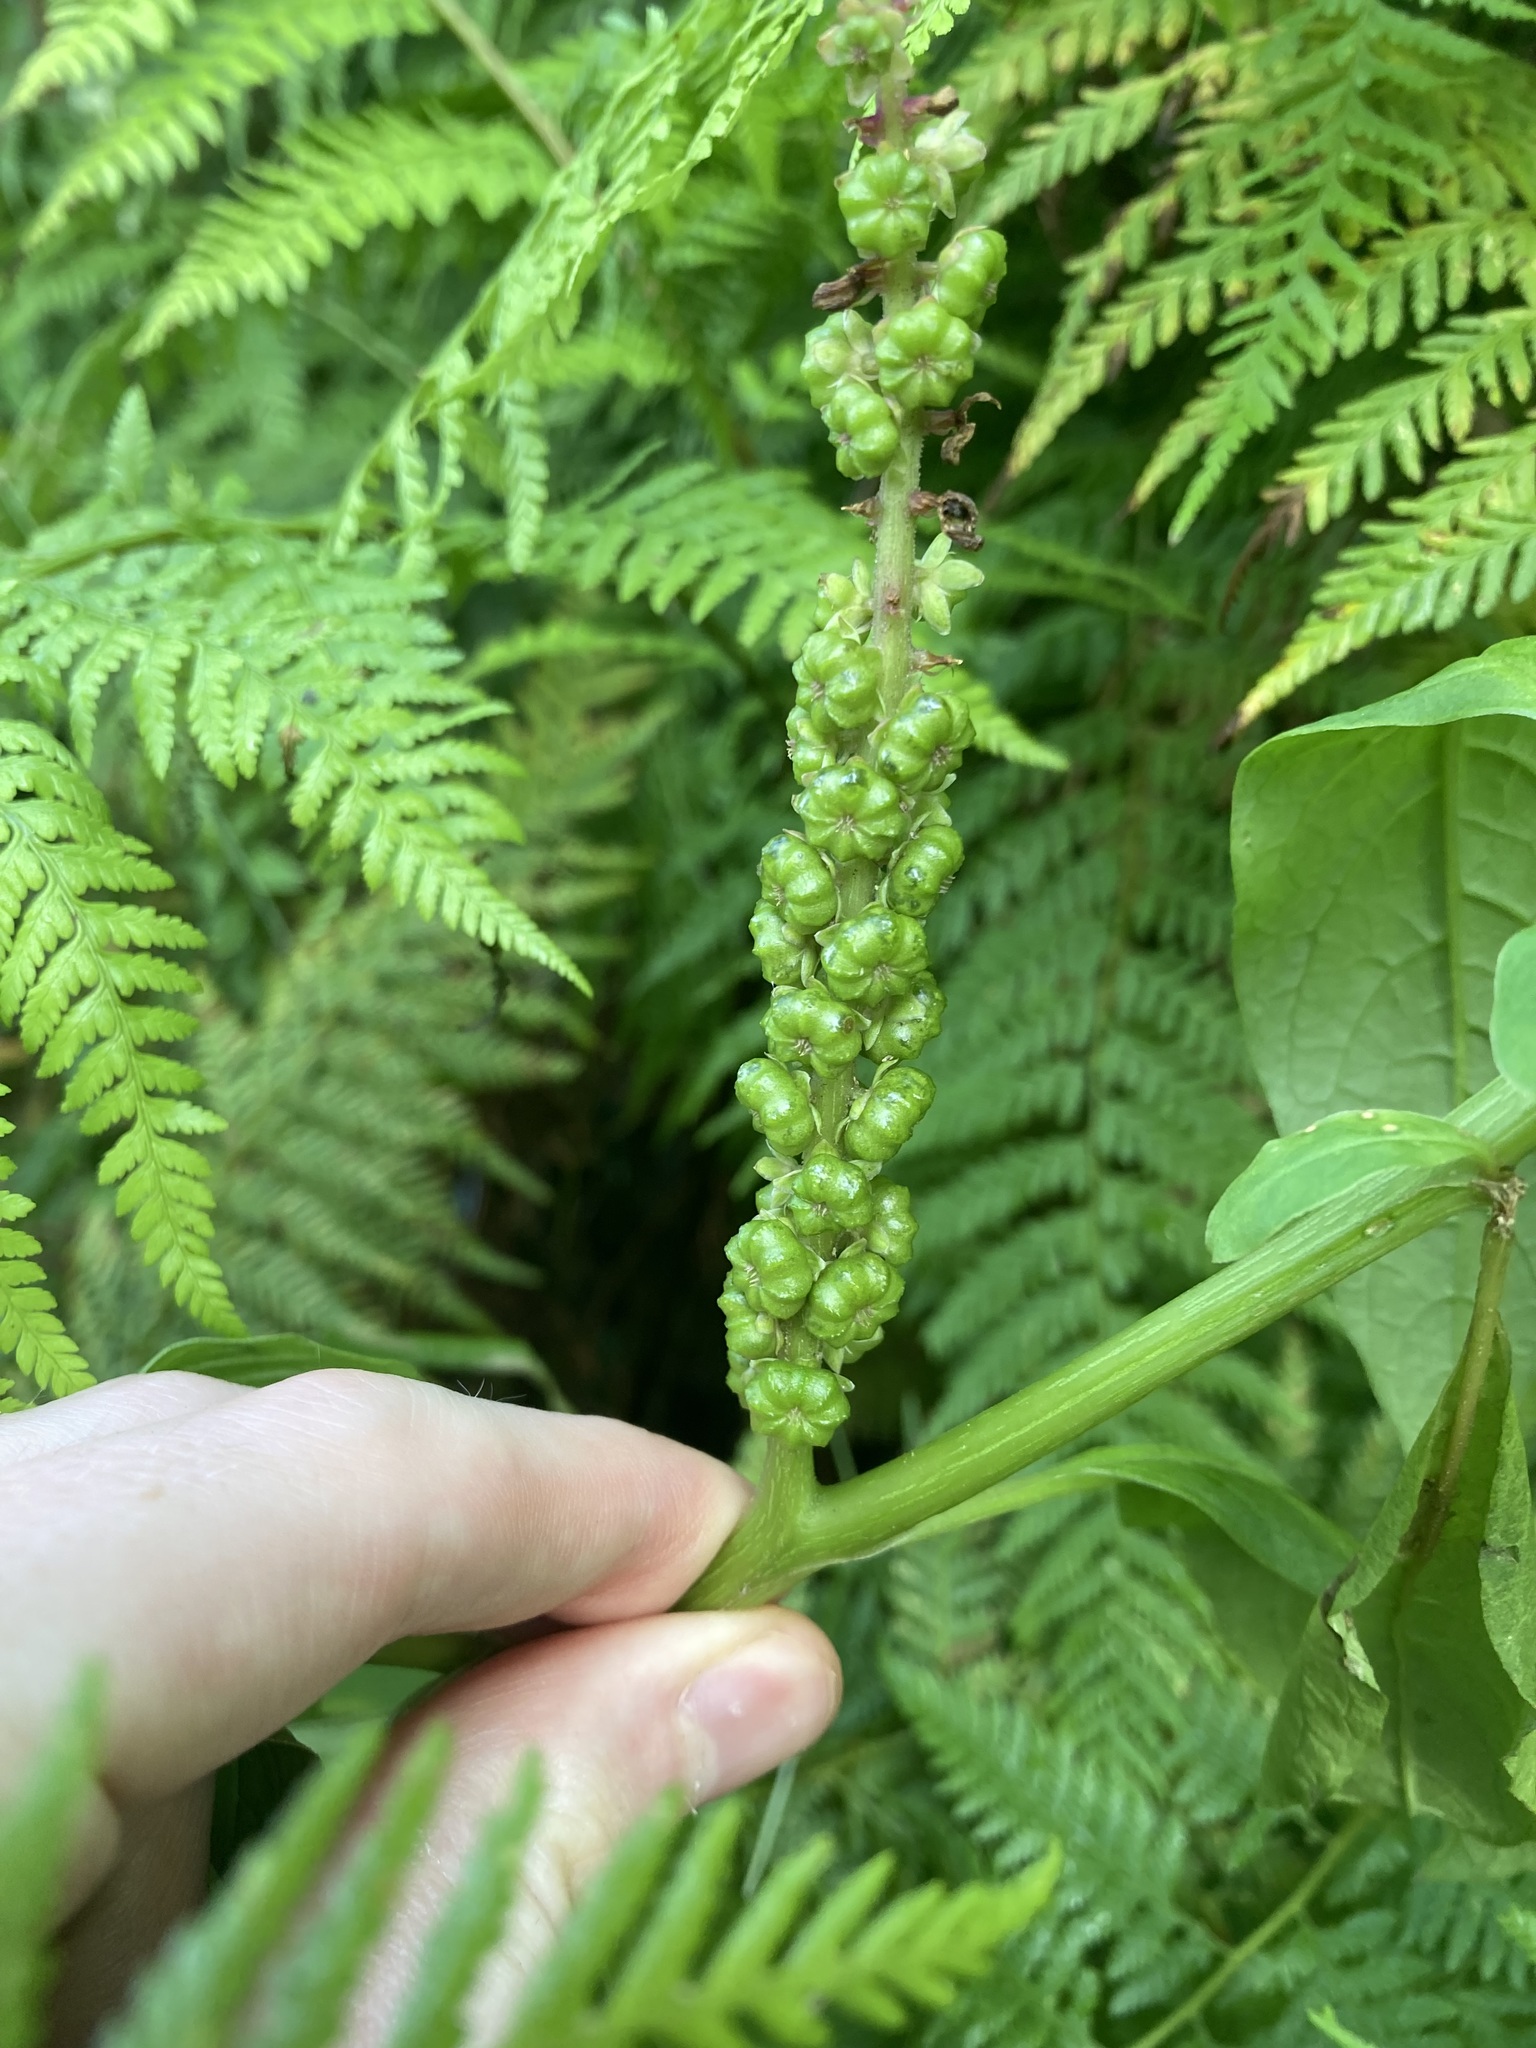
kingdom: Plantae
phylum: Tracheophyta
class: Magnoliopsida
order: Caryophyllales
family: Phytolaccaceae
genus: Phytolacca
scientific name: Phytolacca icosandra
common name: Button pokeweed
